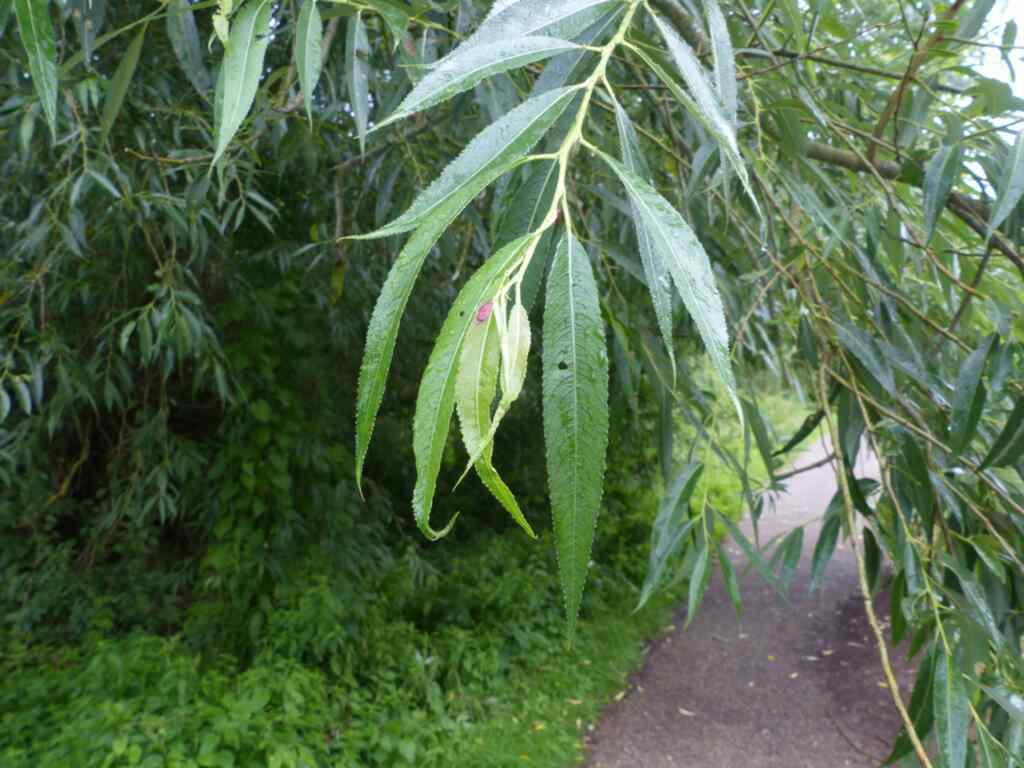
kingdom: Animalia
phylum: Arthropoda
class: Insecta
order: Hymenoptera
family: Tenthredinidae
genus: Pontania
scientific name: Pontania proxima
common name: Common sawfly
